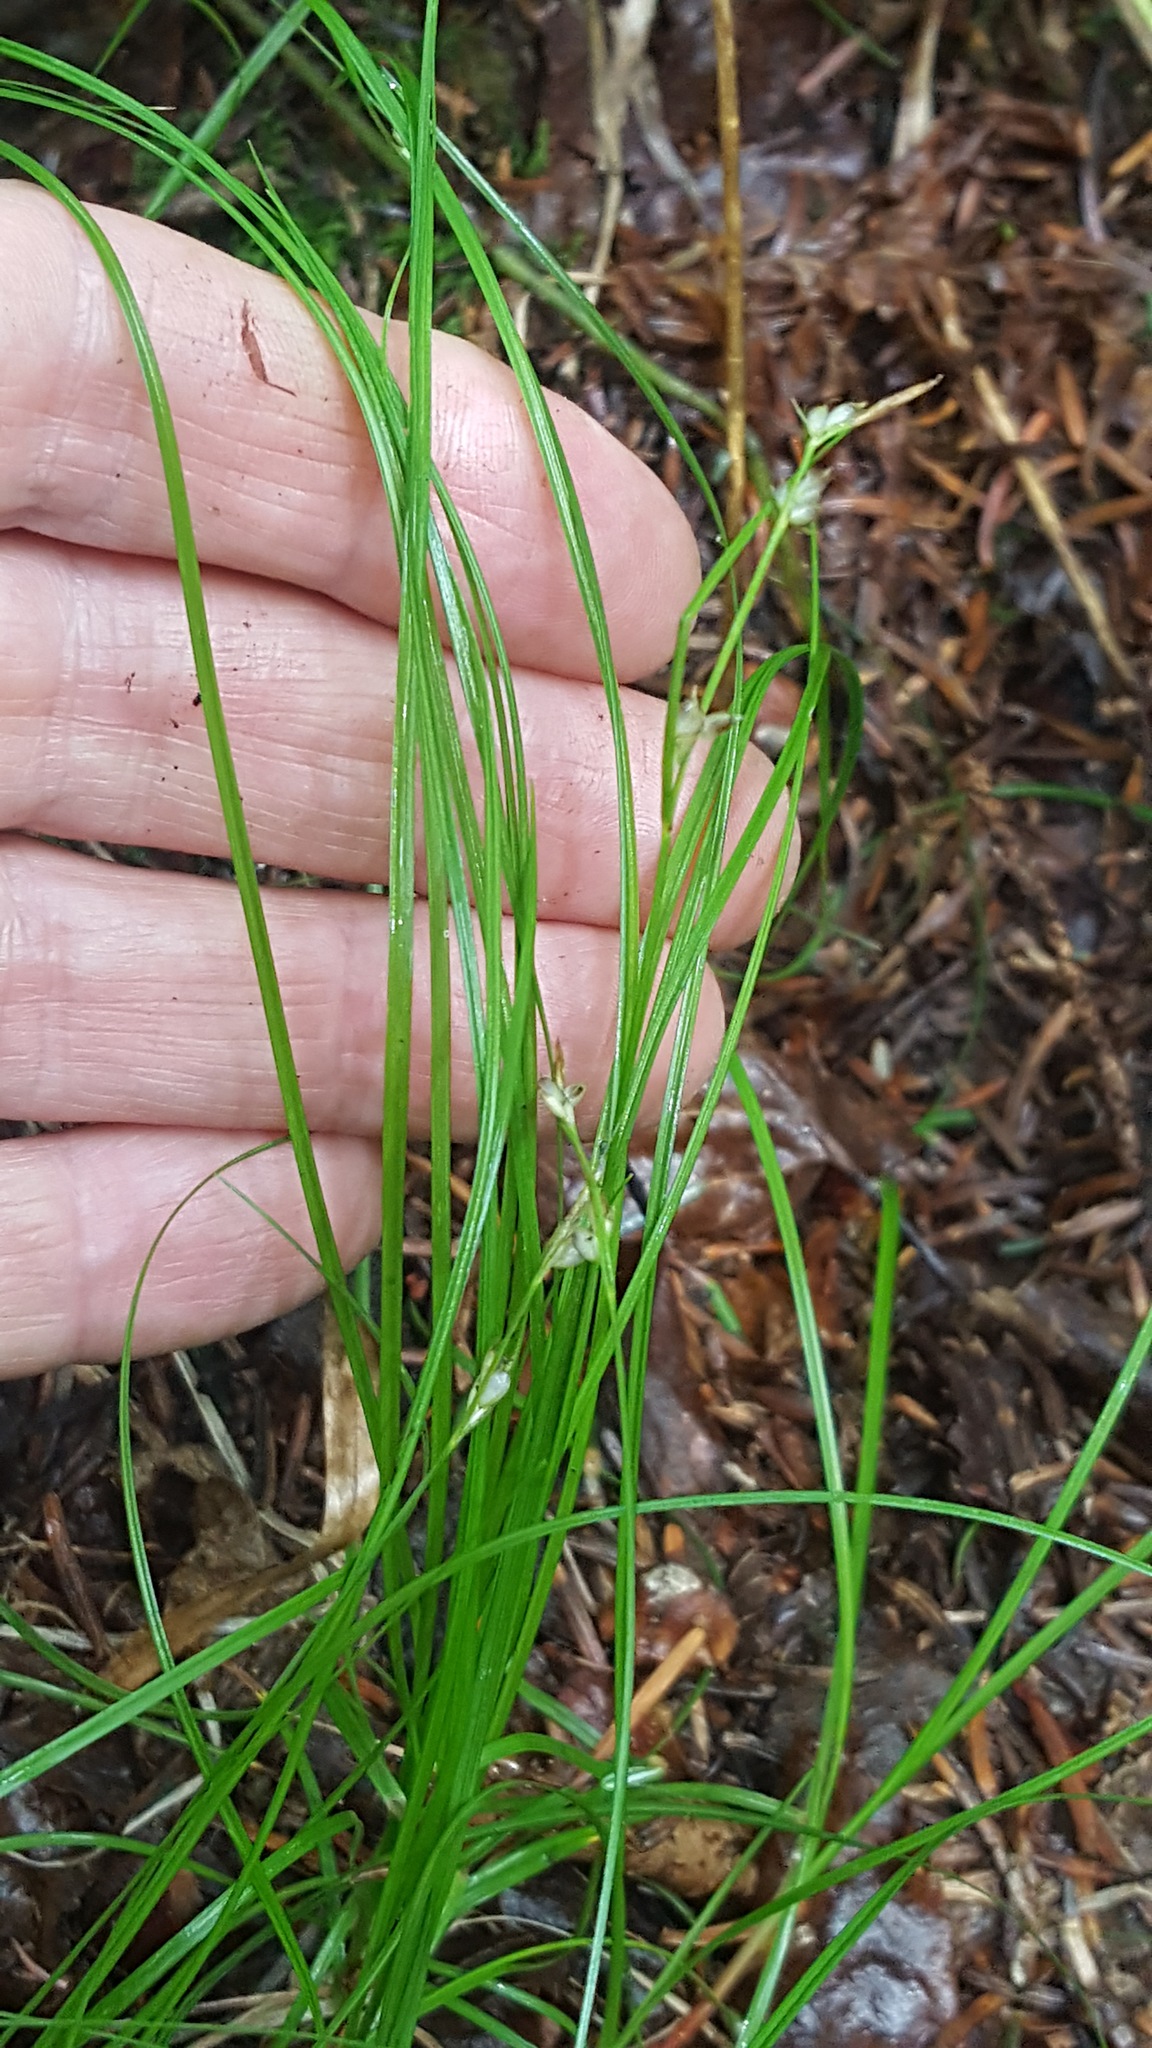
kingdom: Plantae
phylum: Tracheophyta
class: Liliopsida
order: Poales
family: Cyperaceae
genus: Carex
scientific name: Carex novae-angliae
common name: New england sedge
